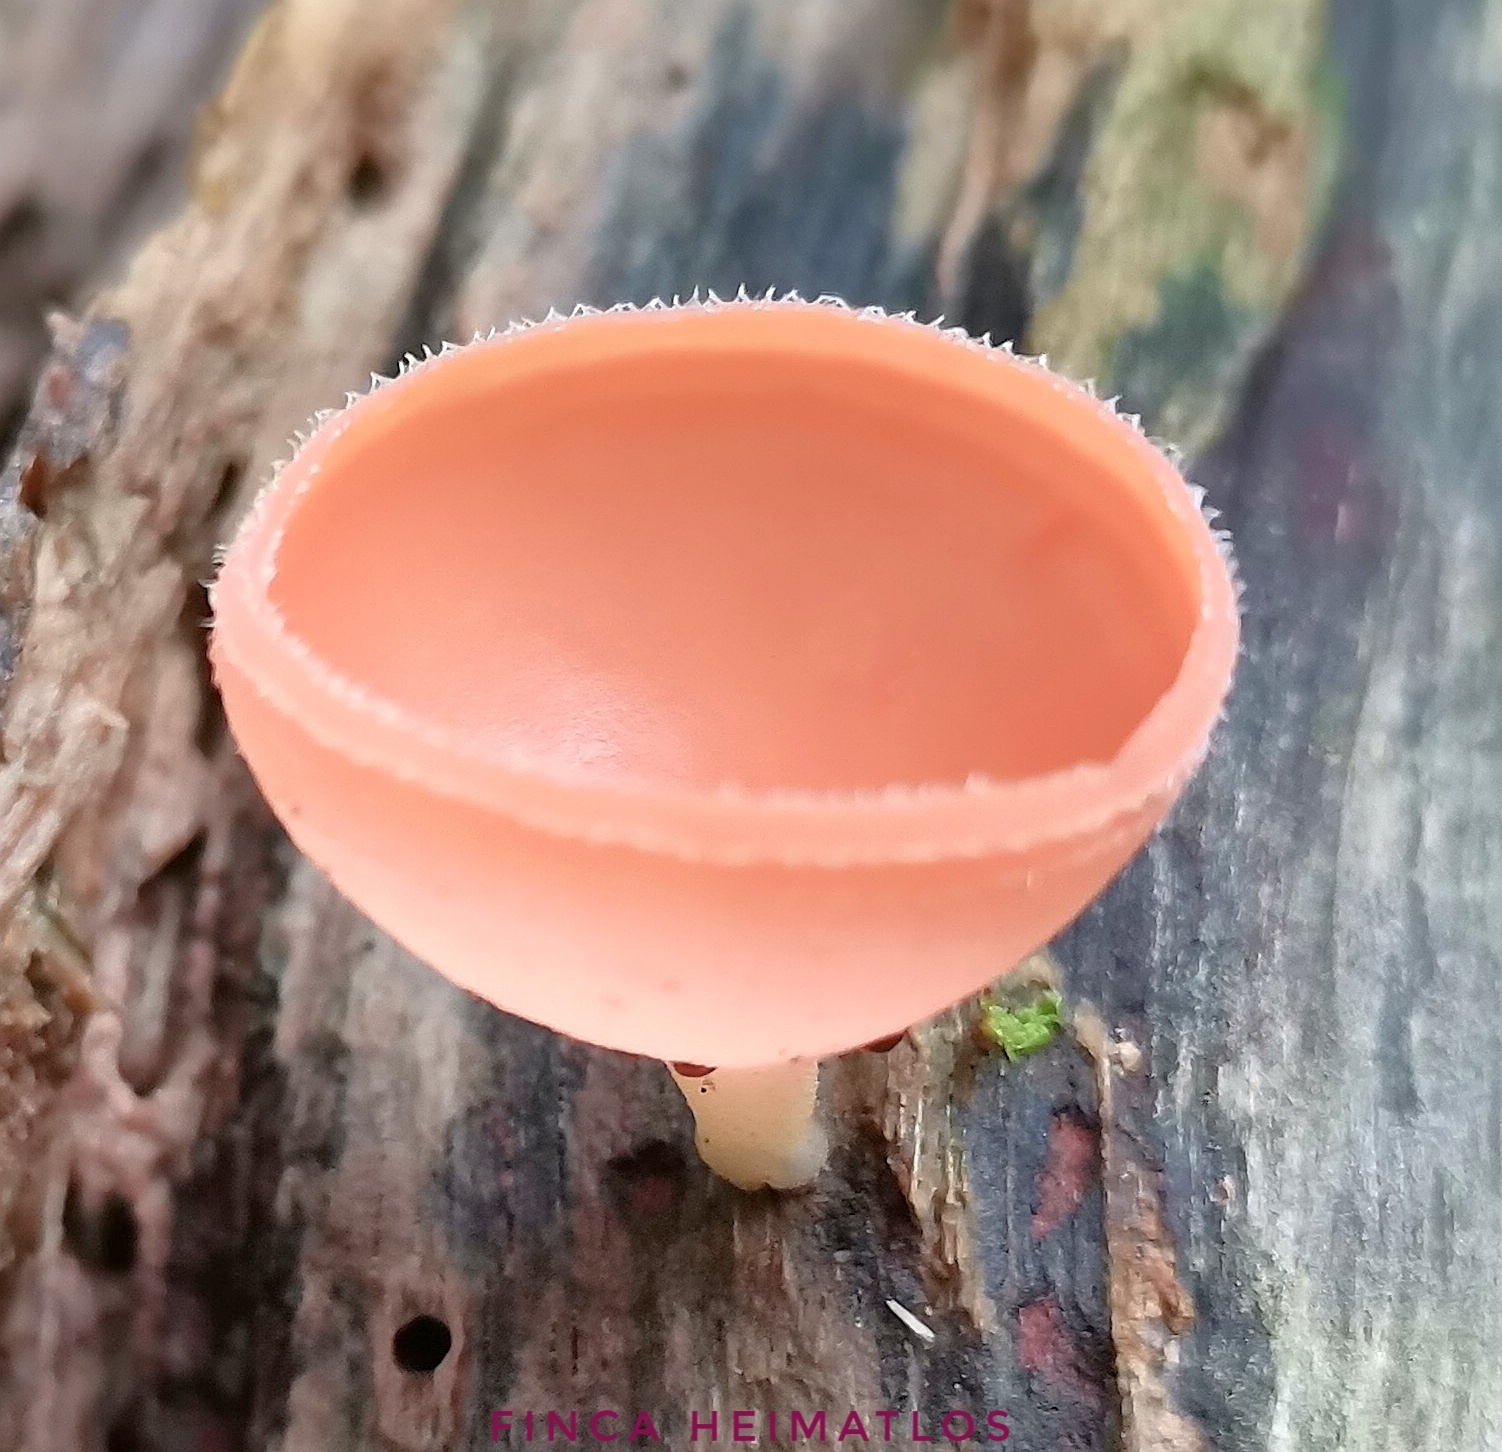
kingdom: Fungi
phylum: Ascomycota
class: Pezizomycetes
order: Pezizales
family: Sarcoscyphaceae
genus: Cookeina
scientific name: Cookeina speciosa
